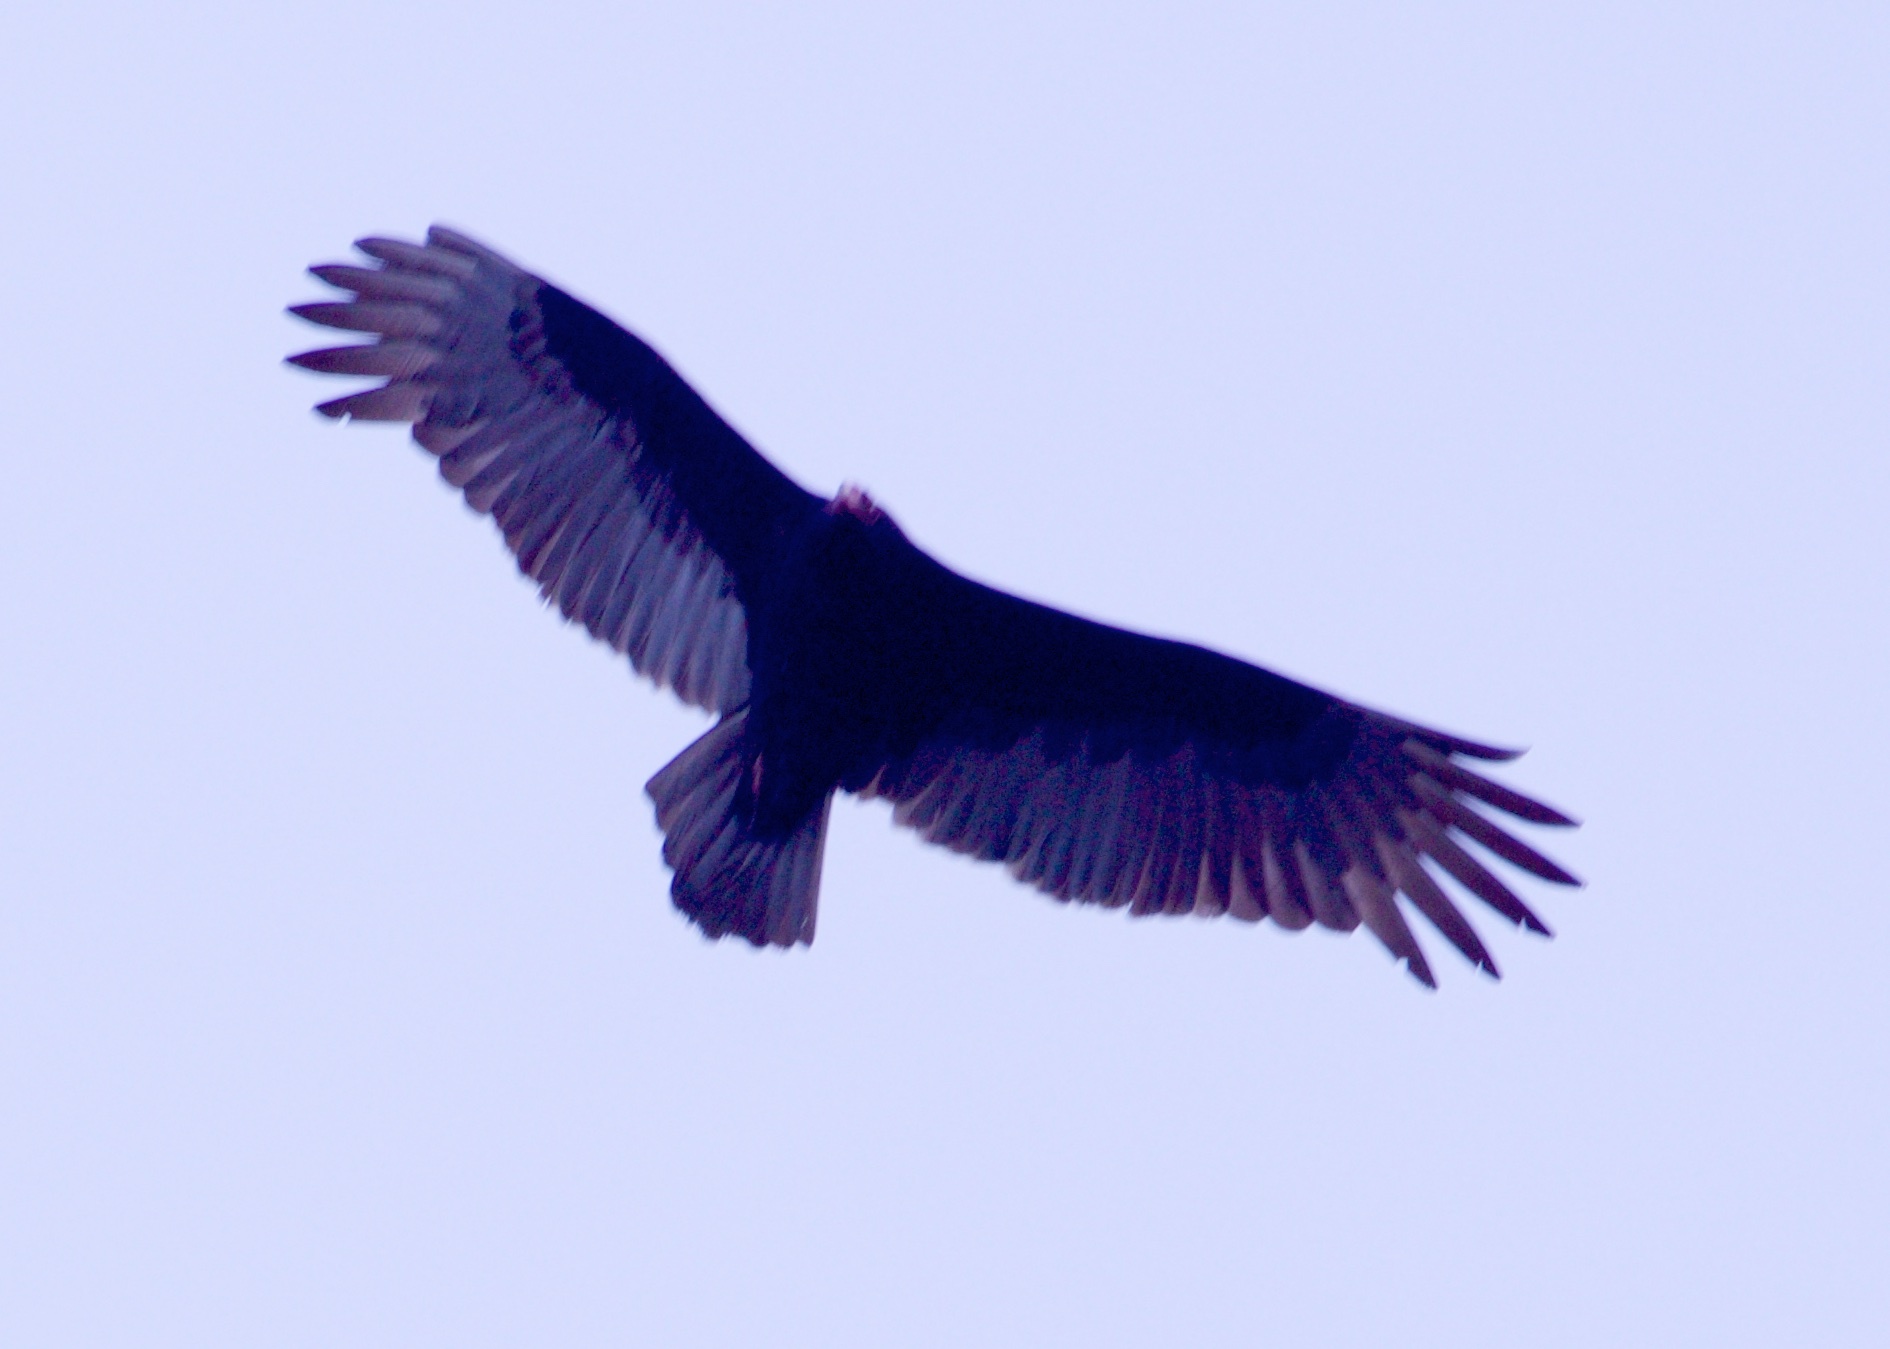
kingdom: Animalia
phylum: Chordata
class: Aves
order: Accipitriformes
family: Cathartidae
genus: Cathartes
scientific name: Cathartes aura
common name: Turkey vulture
